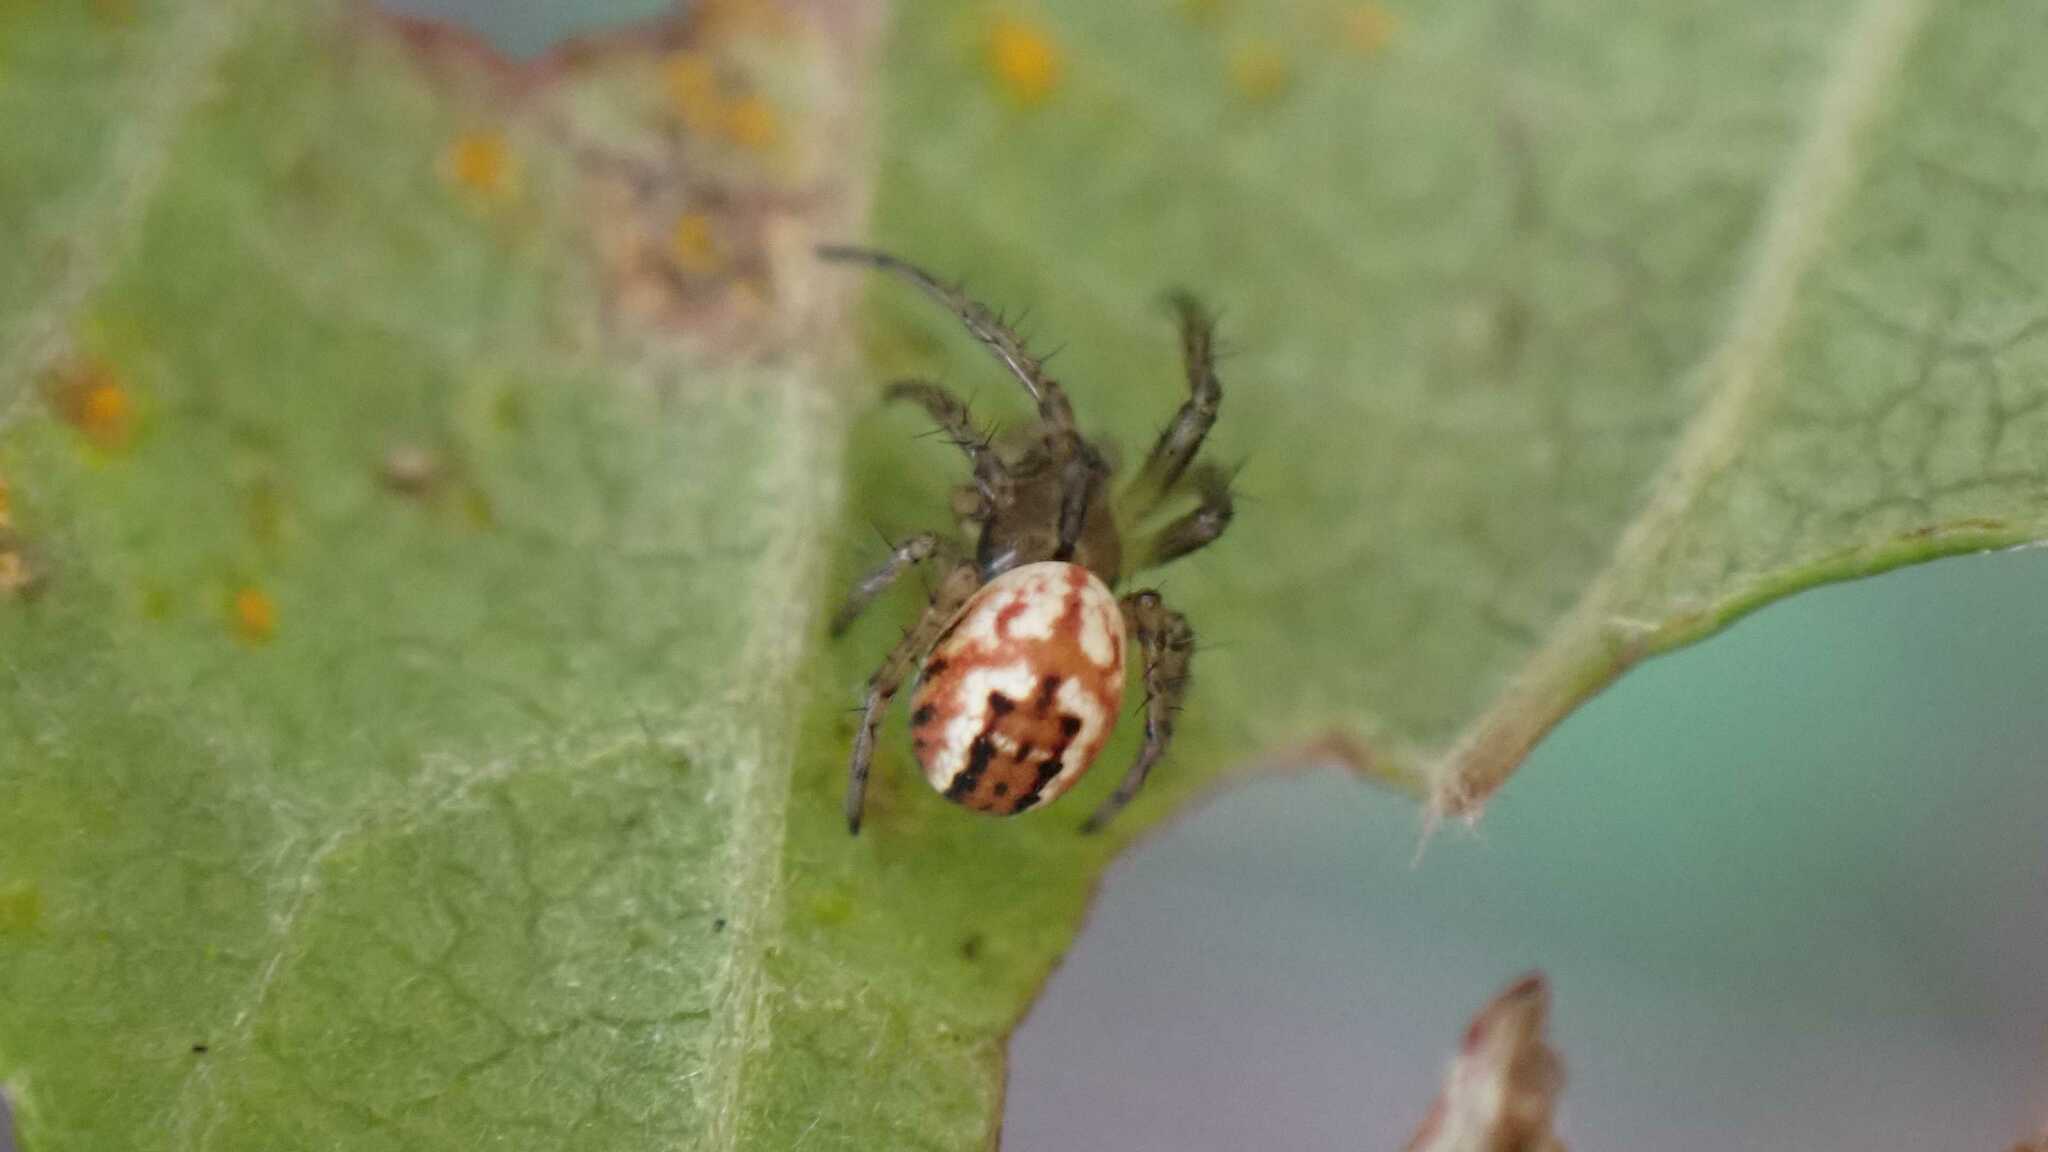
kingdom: Animalia
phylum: Arthropoda
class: Arachnida
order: Araneae
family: Araneidae
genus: Mangora
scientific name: Mangora acalypha
